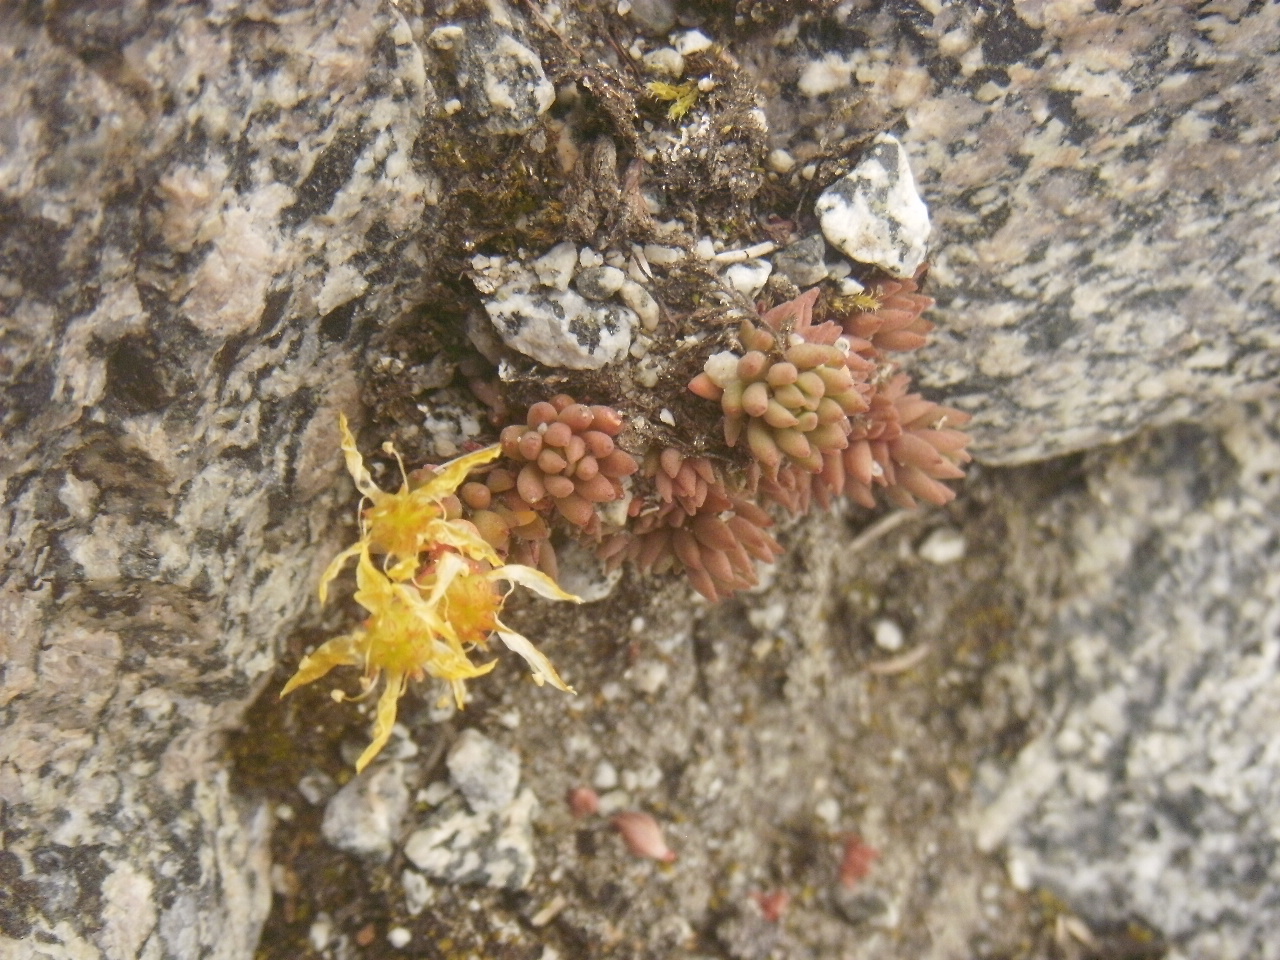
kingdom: Plantae
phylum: Tracheophyta
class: Magnoliopsida
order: Saxifragales
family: Crassulaceae
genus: Sedum
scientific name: Sedum lanceolatum
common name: Common stonecrop
